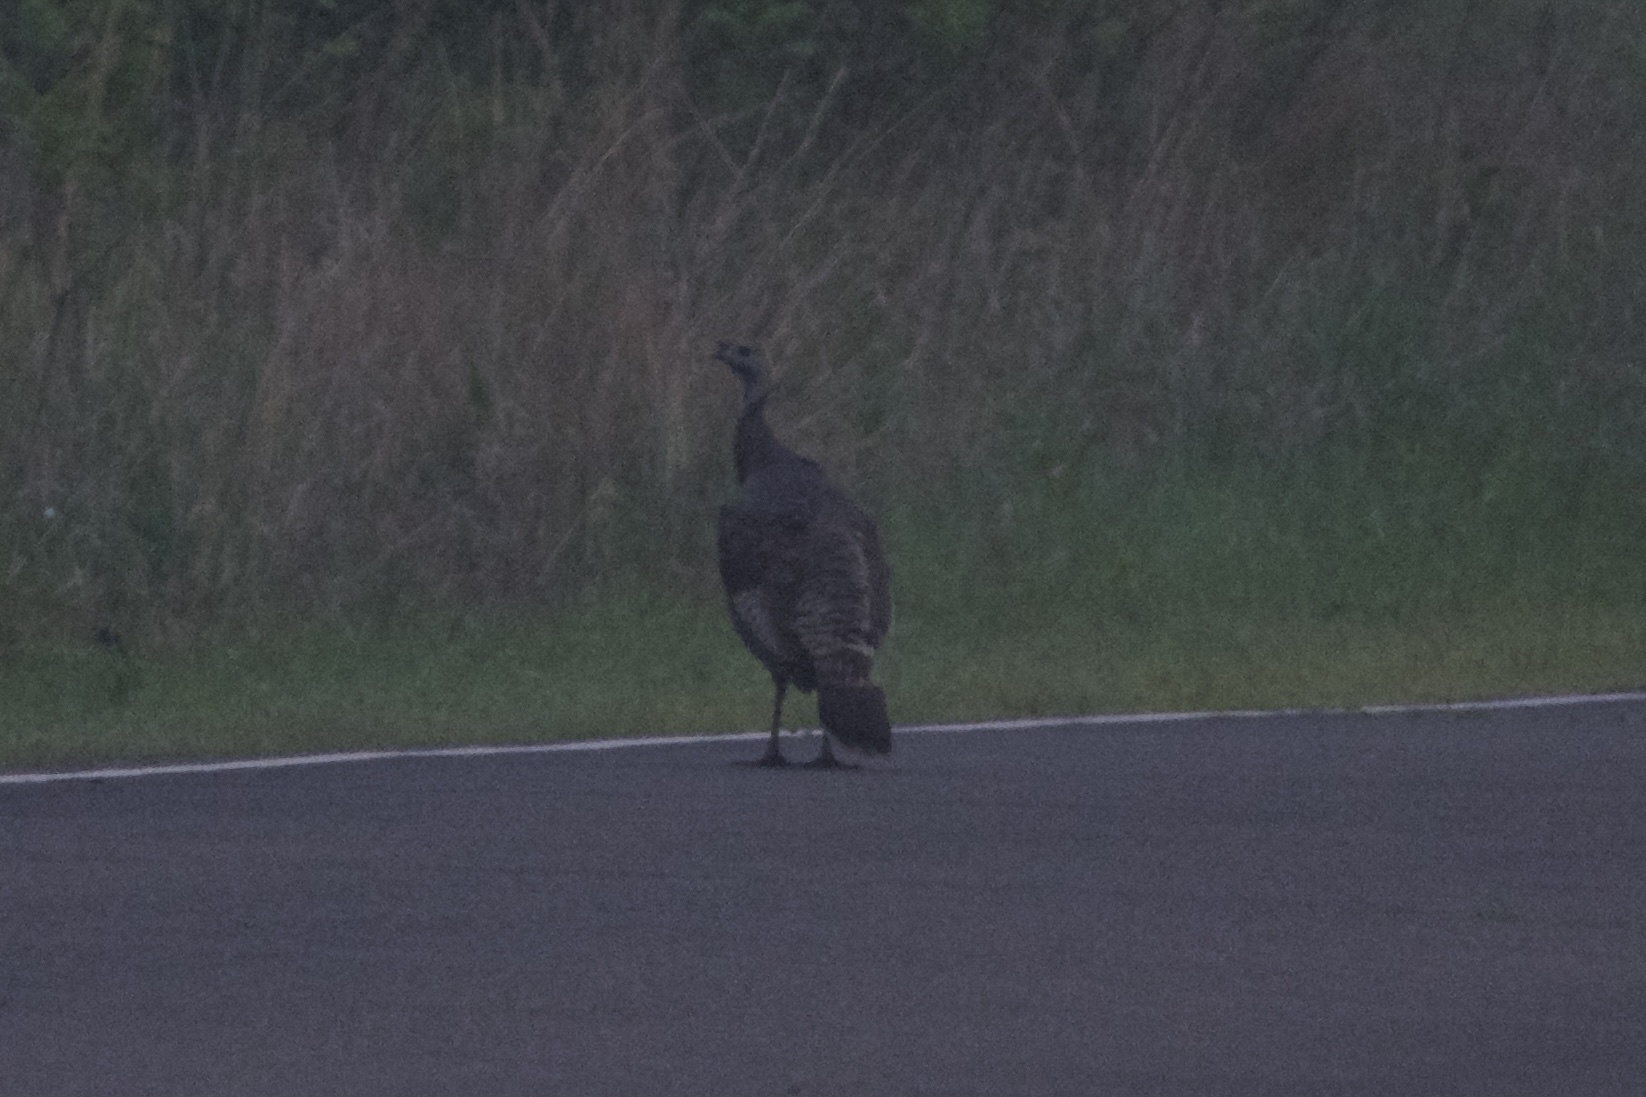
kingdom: Animalia
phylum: Chordata
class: Aves
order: Galliformes
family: Phasianidae
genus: Meleagris
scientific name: Meleagris gallopavo
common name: Wild turkey
